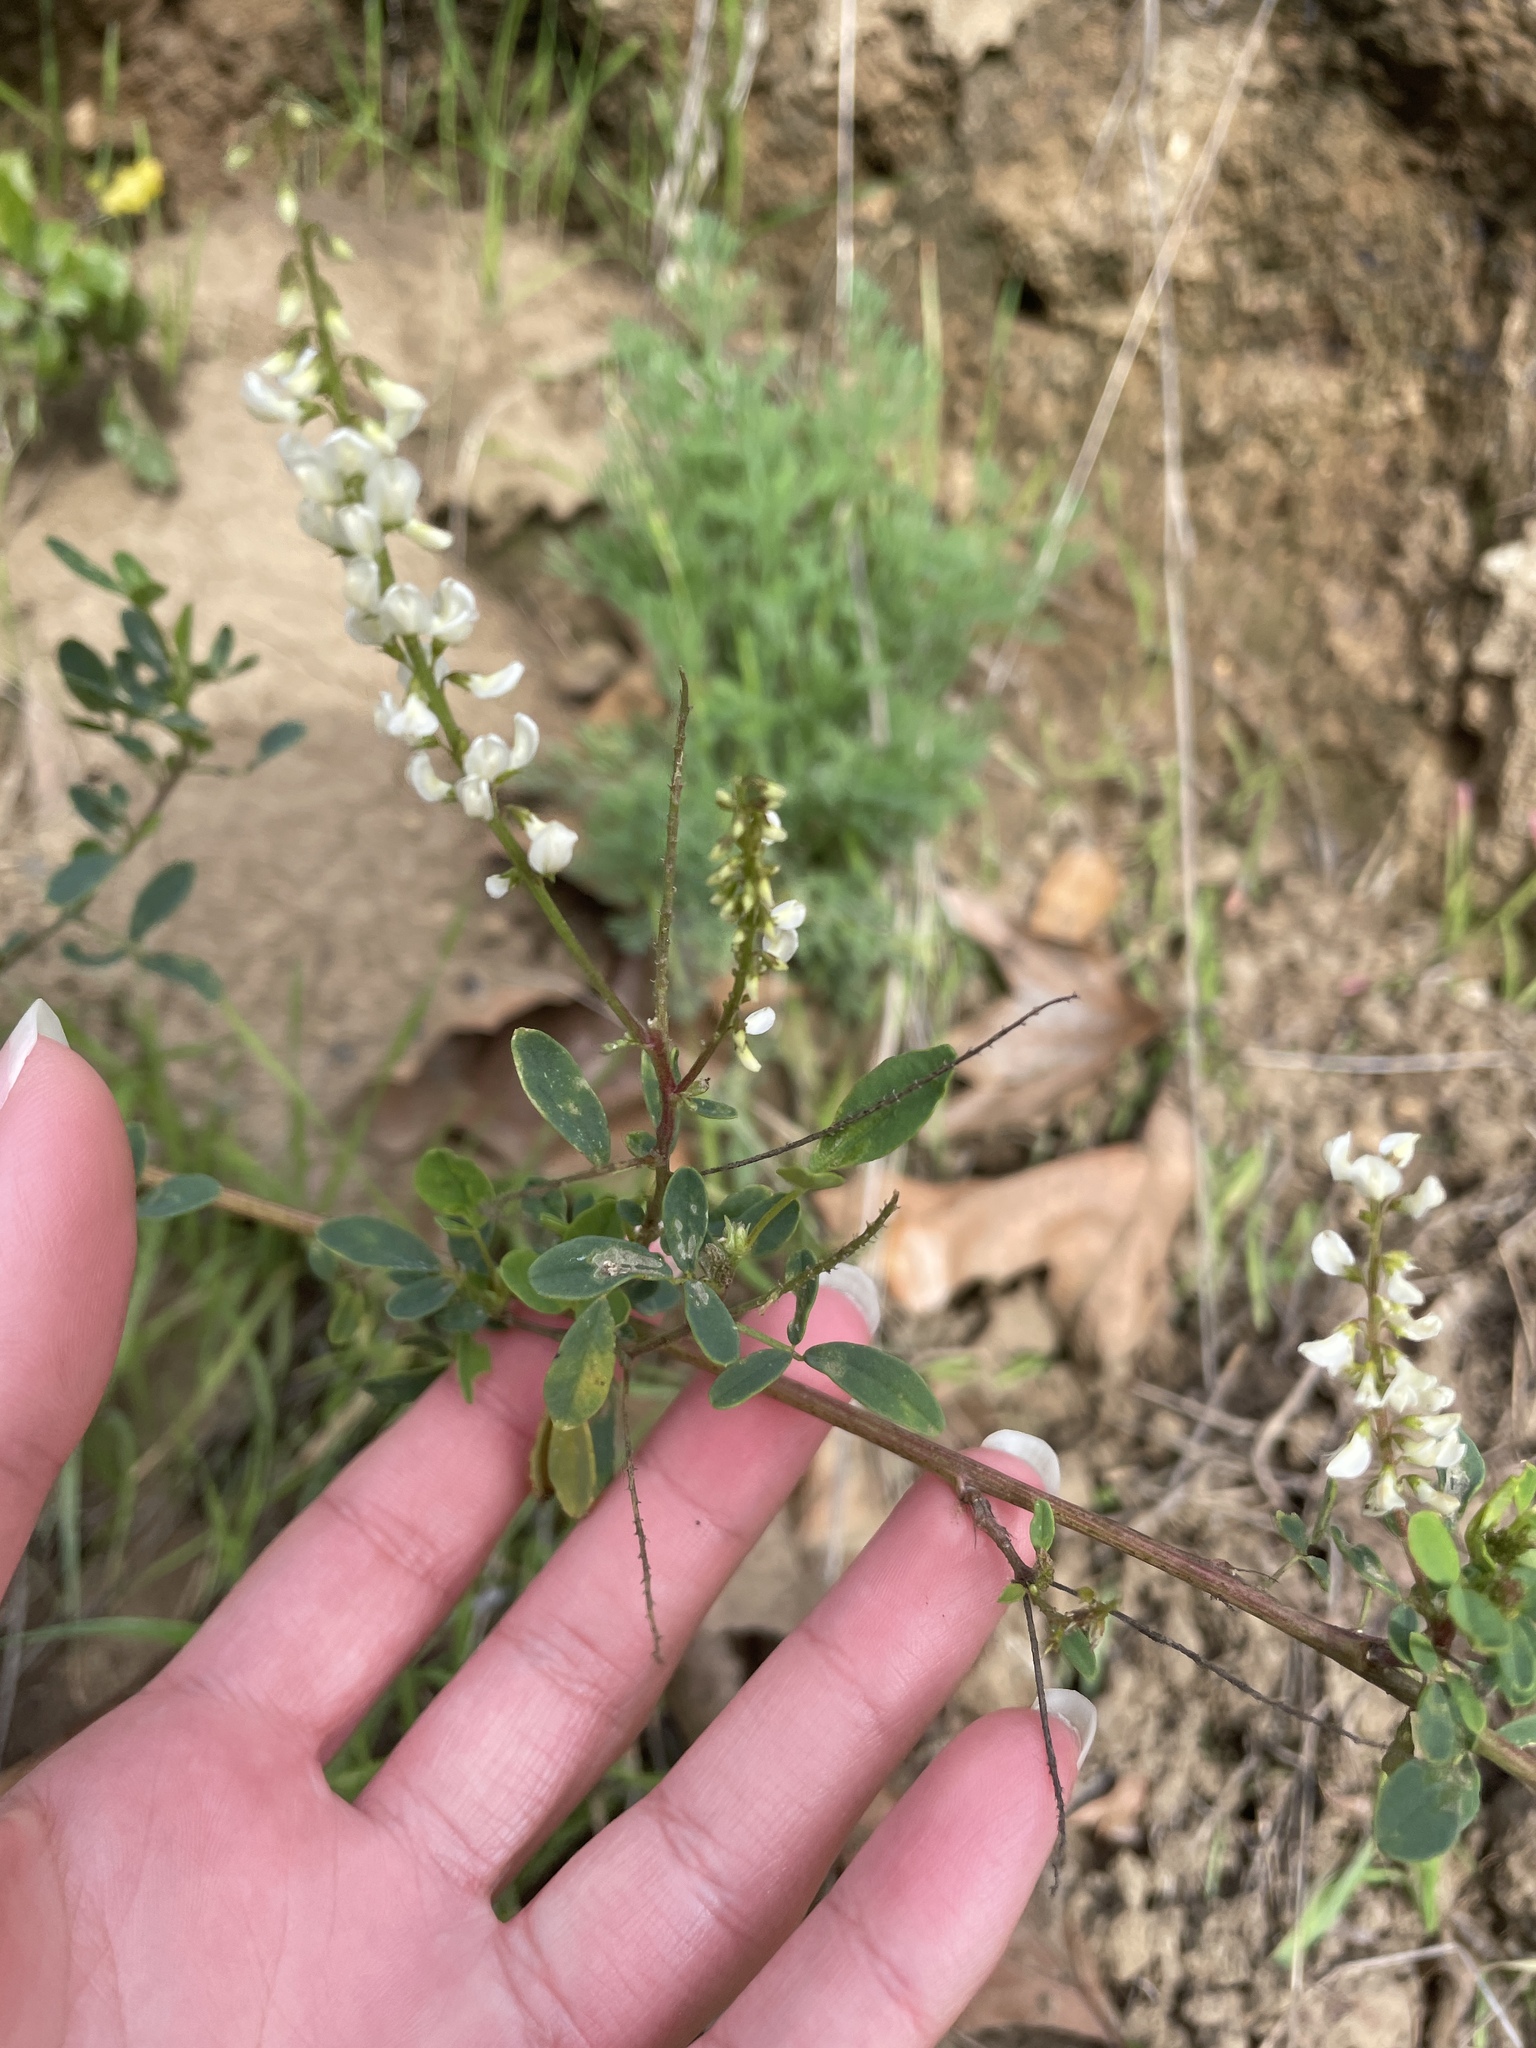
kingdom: Plantae
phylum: Tracheophyta
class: Magnoliopsida
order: Fabales
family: Fabaceae
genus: Melilotus
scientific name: Melilotus albus
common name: White melilot
